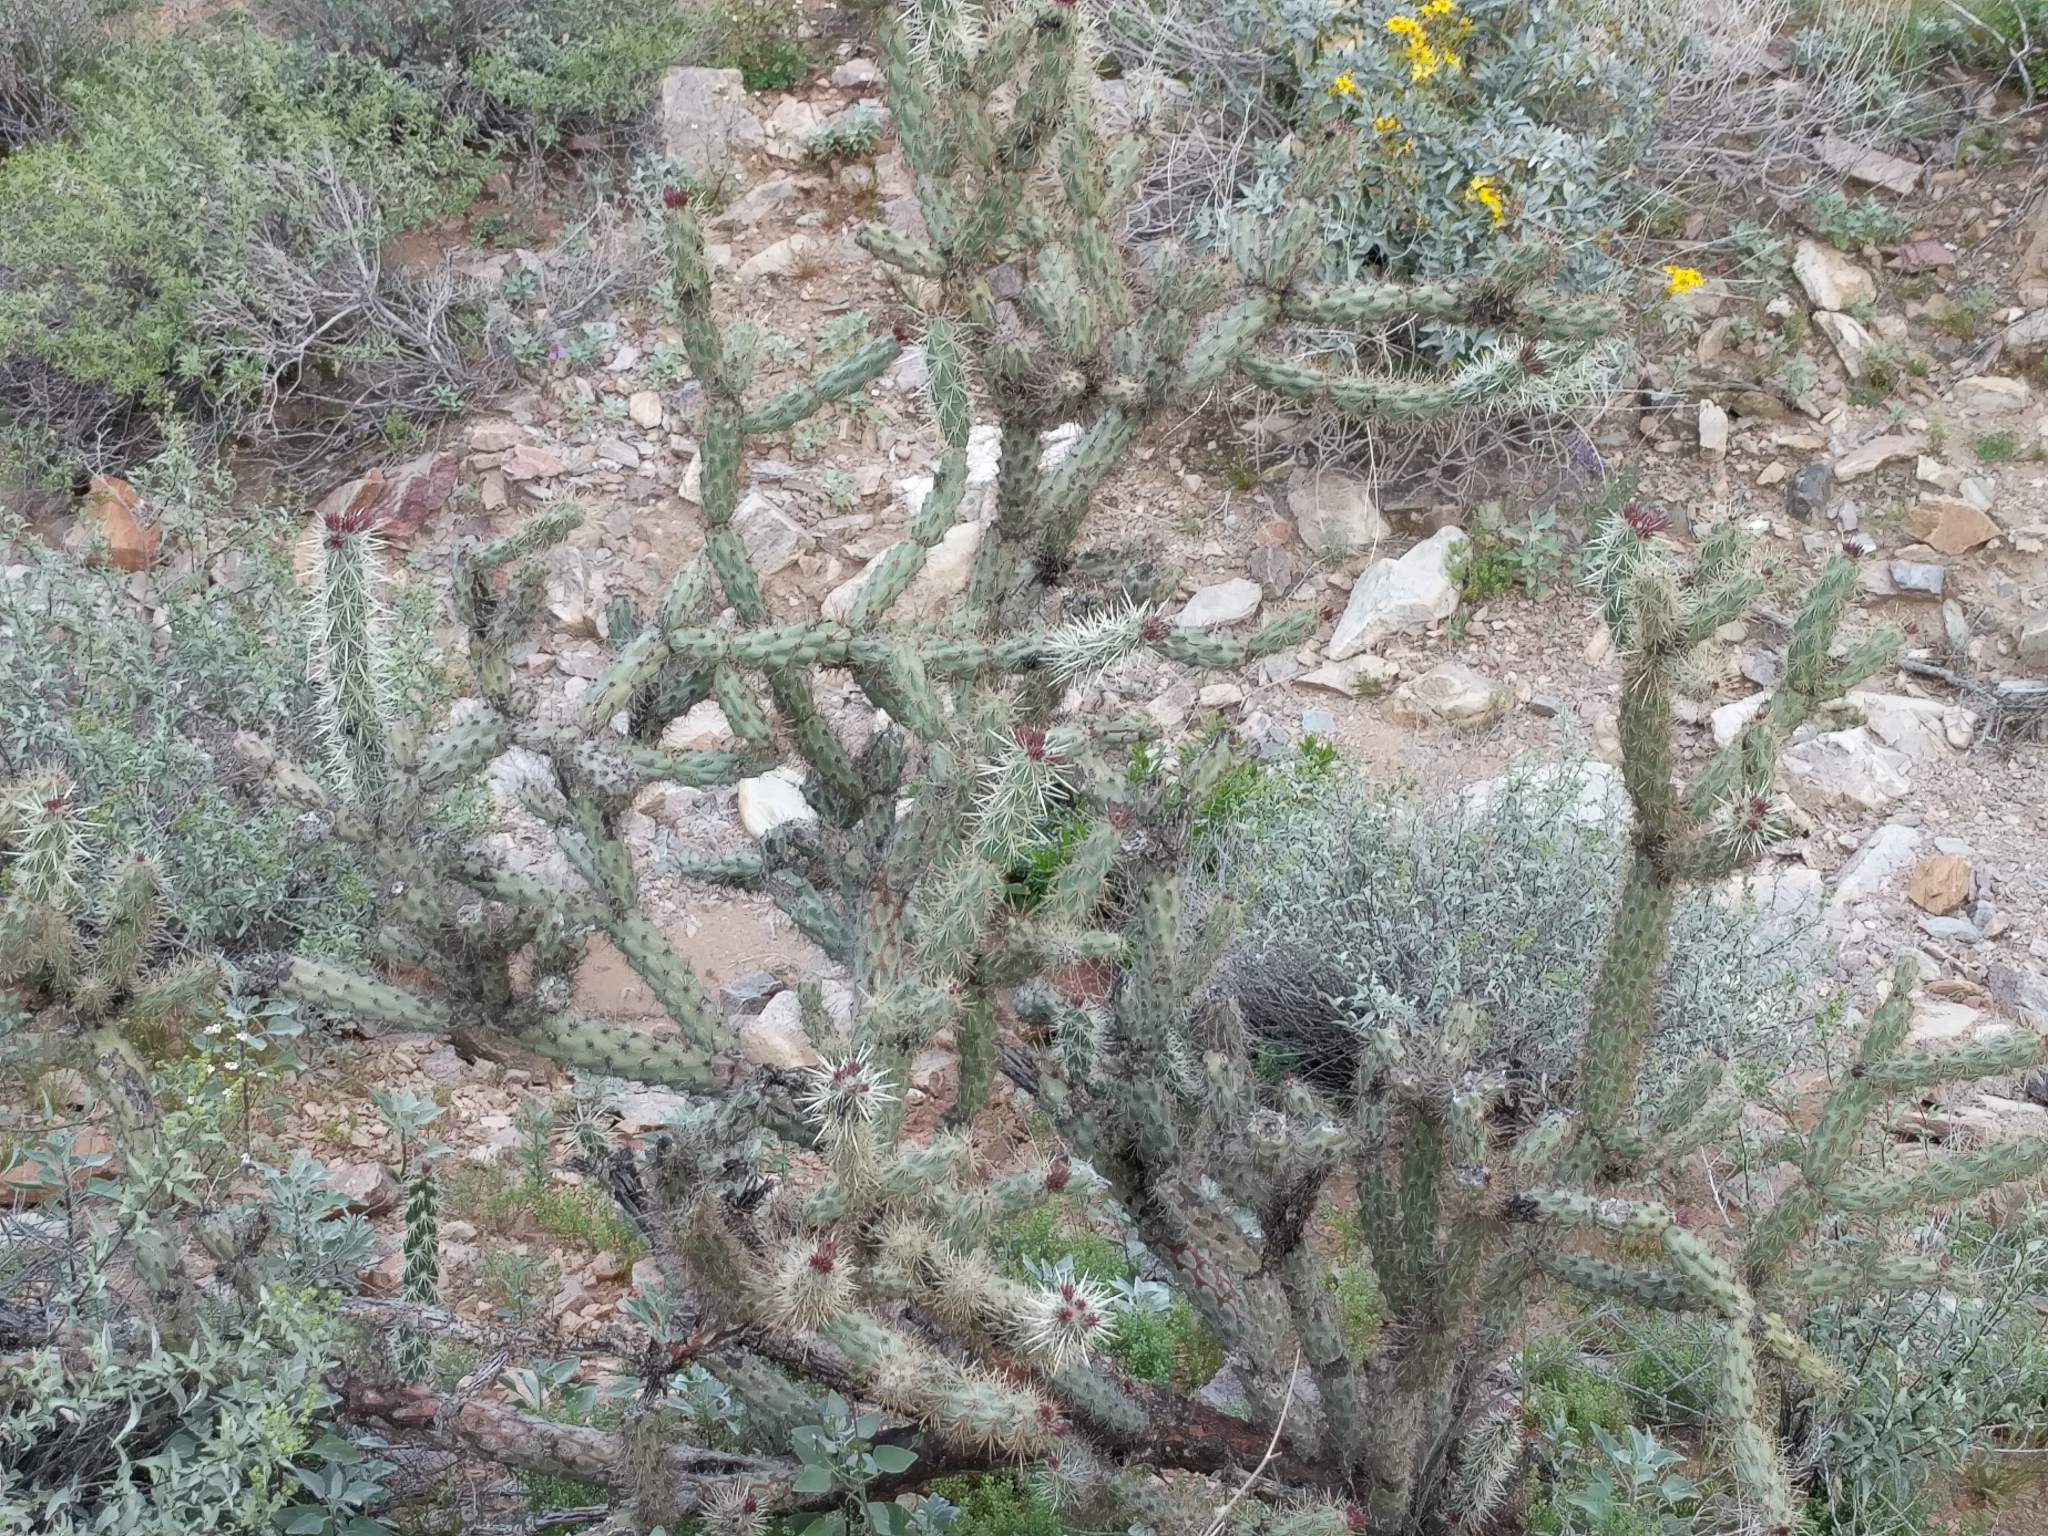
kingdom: Plantae
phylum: Tracheophyta
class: Magnoliopsida
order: Caryophyllales
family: Cactaceae
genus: Cylindropuntia
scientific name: Cylindropuntia acanthocarpa
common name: Buckhorn cholla
